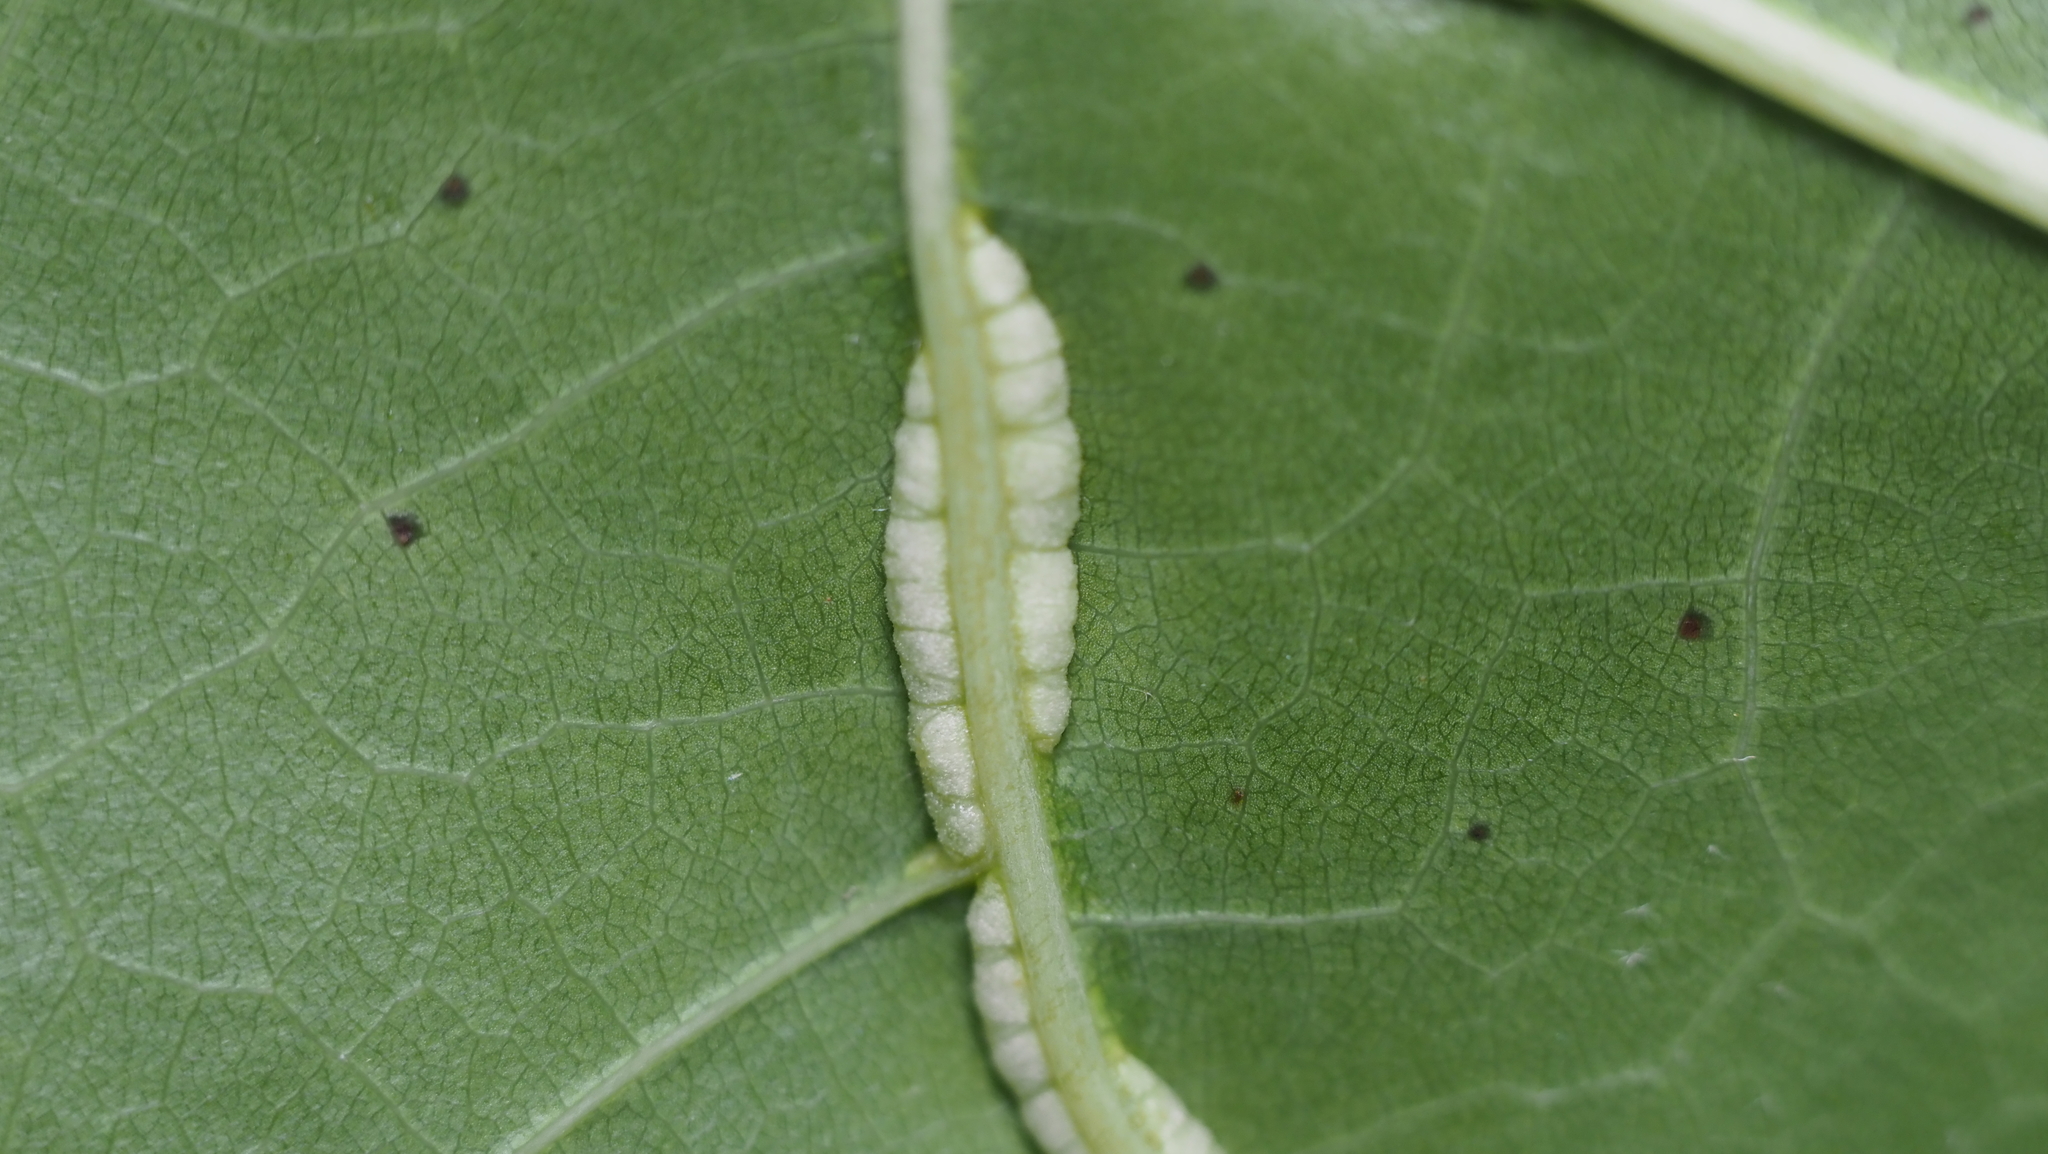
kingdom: Animalia
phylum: Arthropoda
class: Insecta
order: Diptera
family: Cecidomyiidae
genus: Macrodiplosis
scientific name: Macrodiplosis q-orucum
